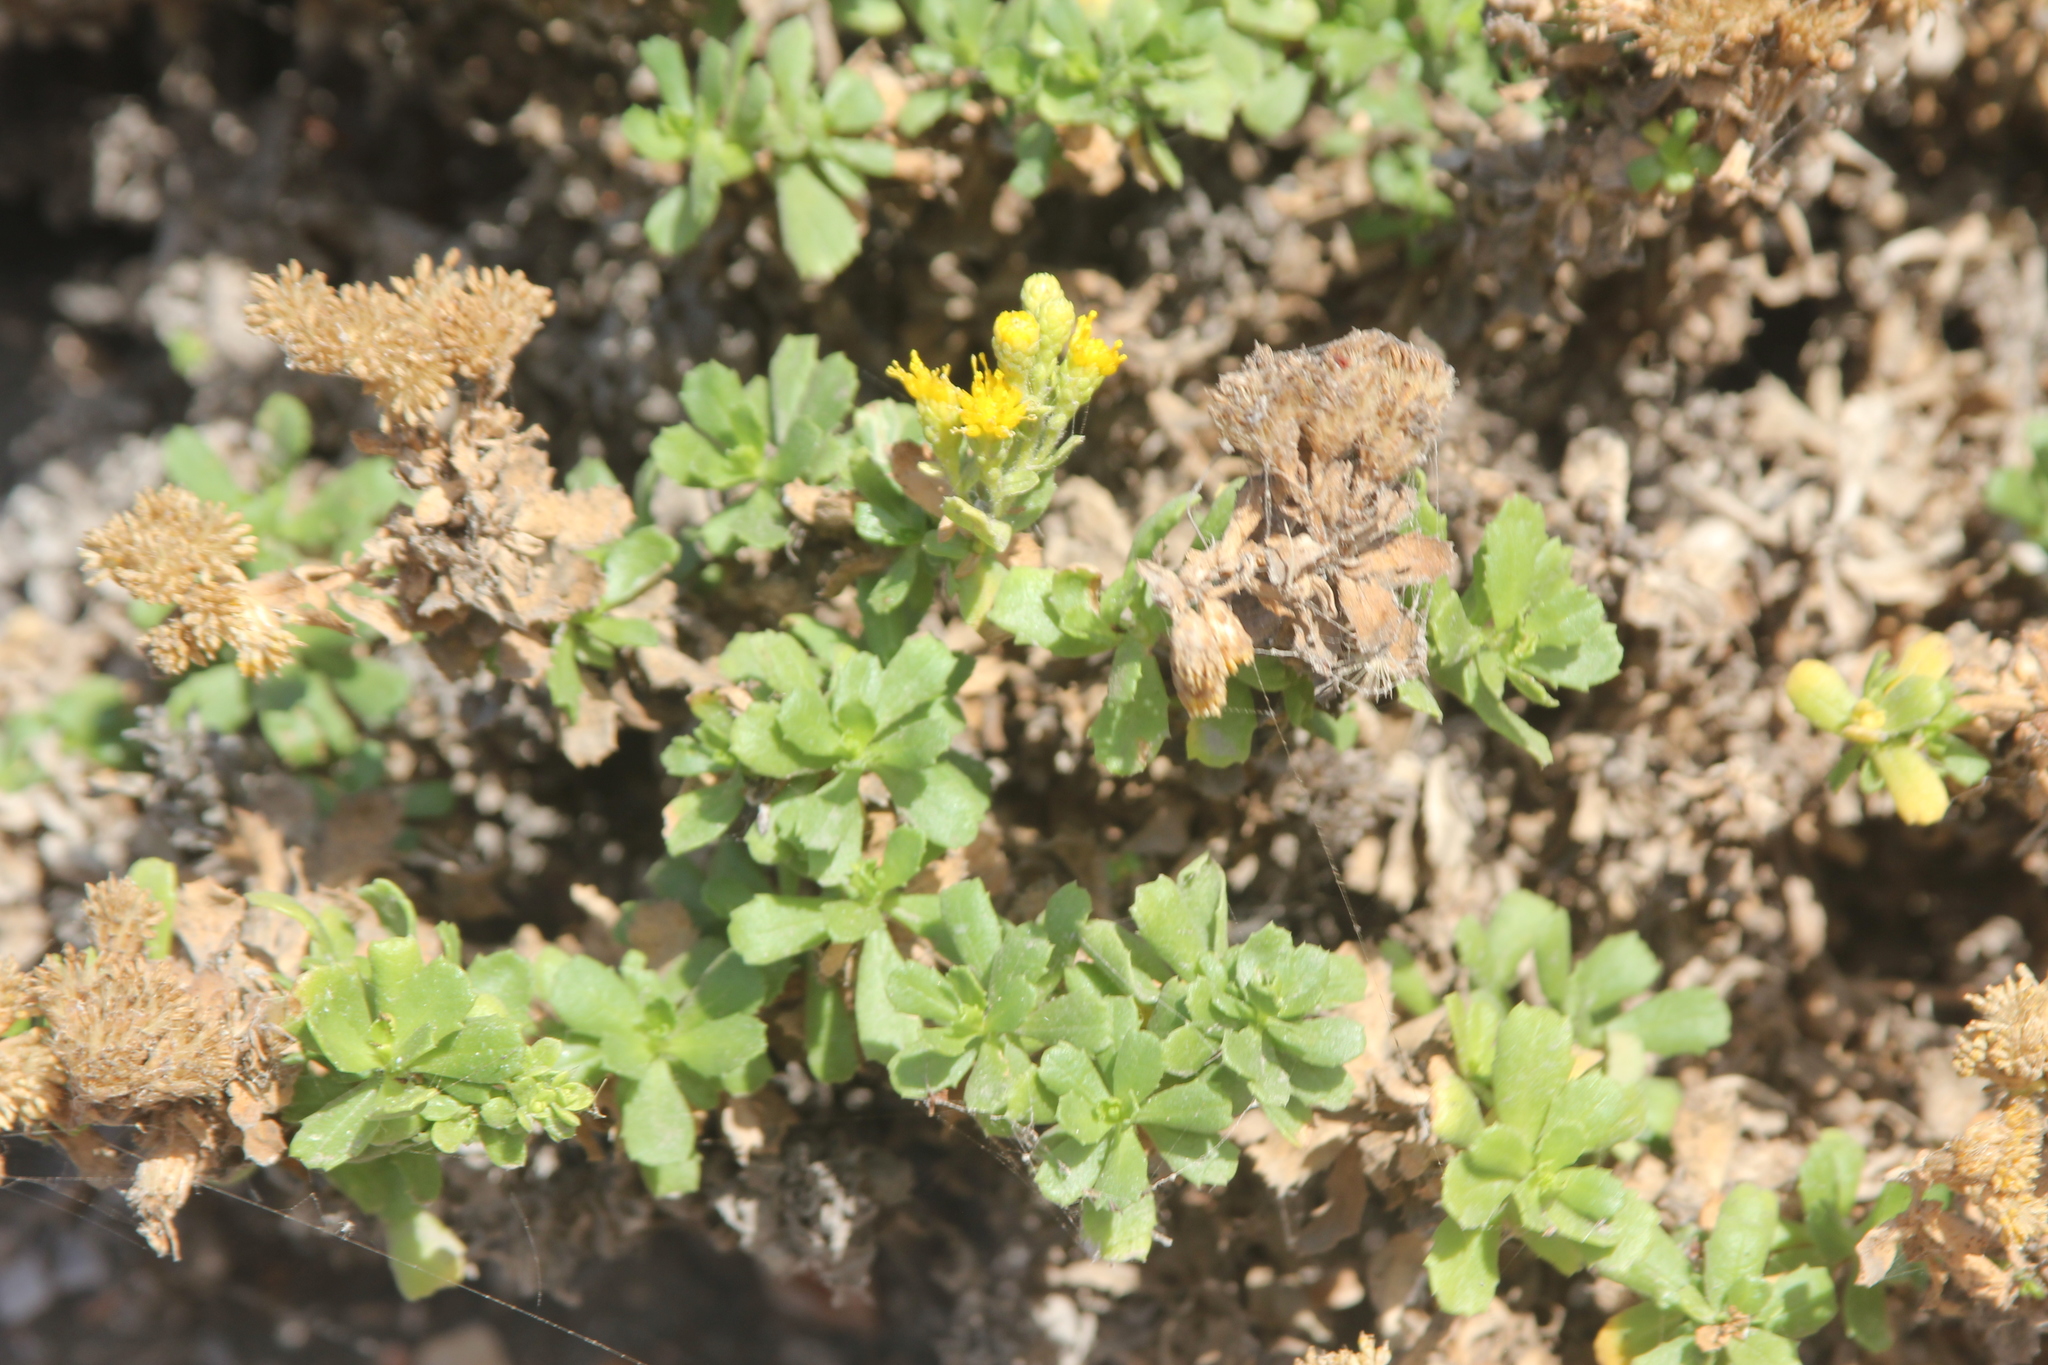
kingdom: Plantae
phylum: Tracheophyta
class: Magnoliopsida
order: Asterales
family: Asteraceae
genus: Isocoma
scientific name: Isocoma menziesii
